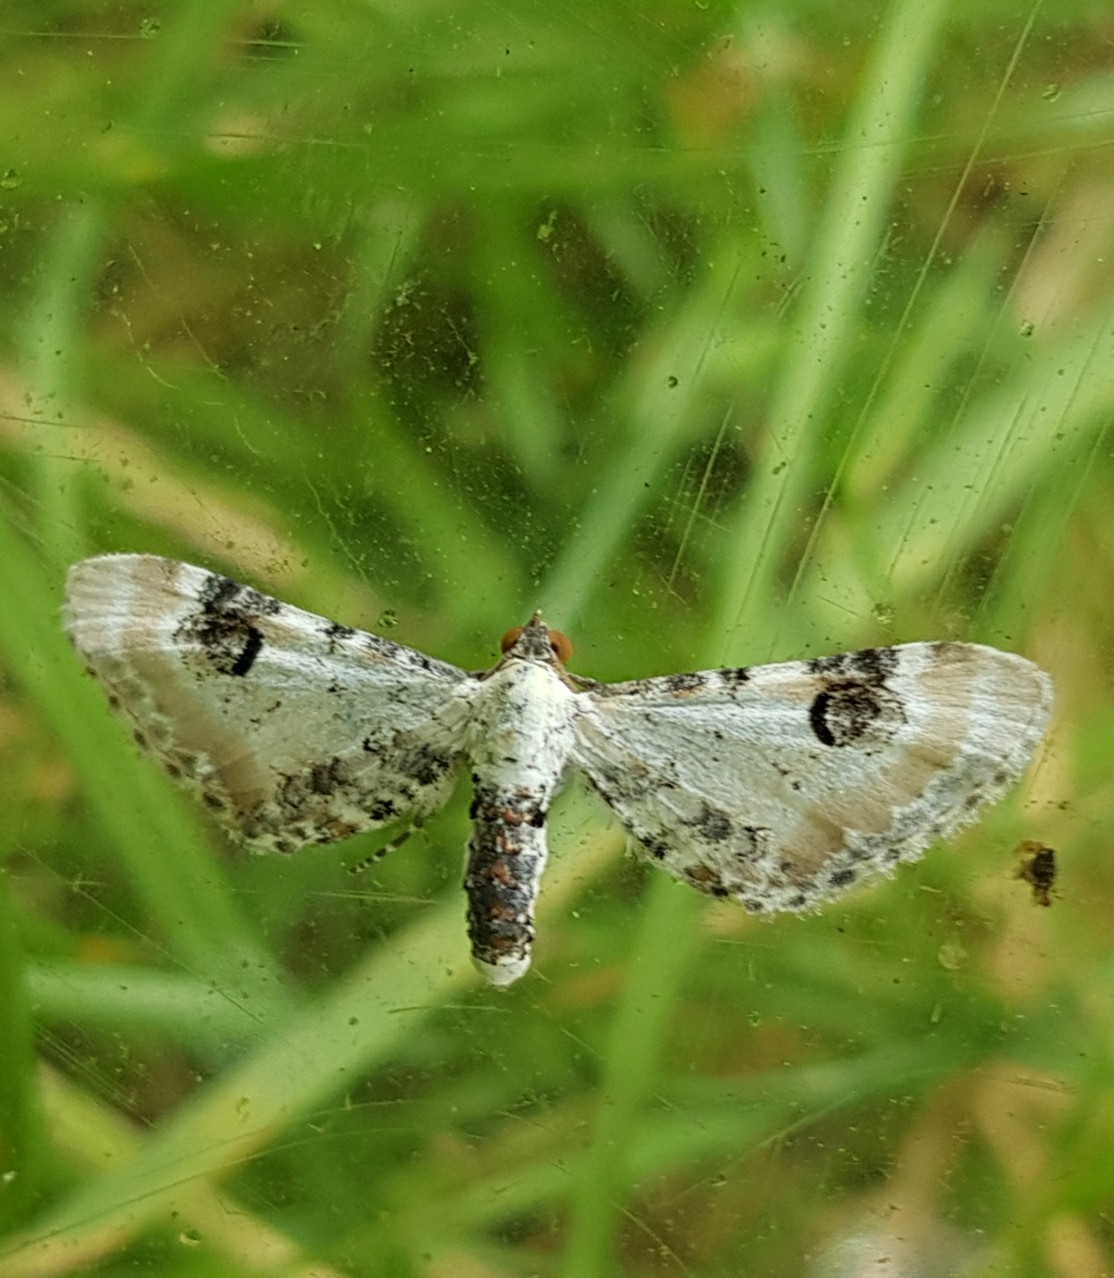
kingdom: Animalia
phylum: Arthropoda
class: Insecta
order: Lepidoptera
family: Geometridae
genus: Eupithecia
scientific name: Eupithecia centaureata
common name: Lime-speck pug
